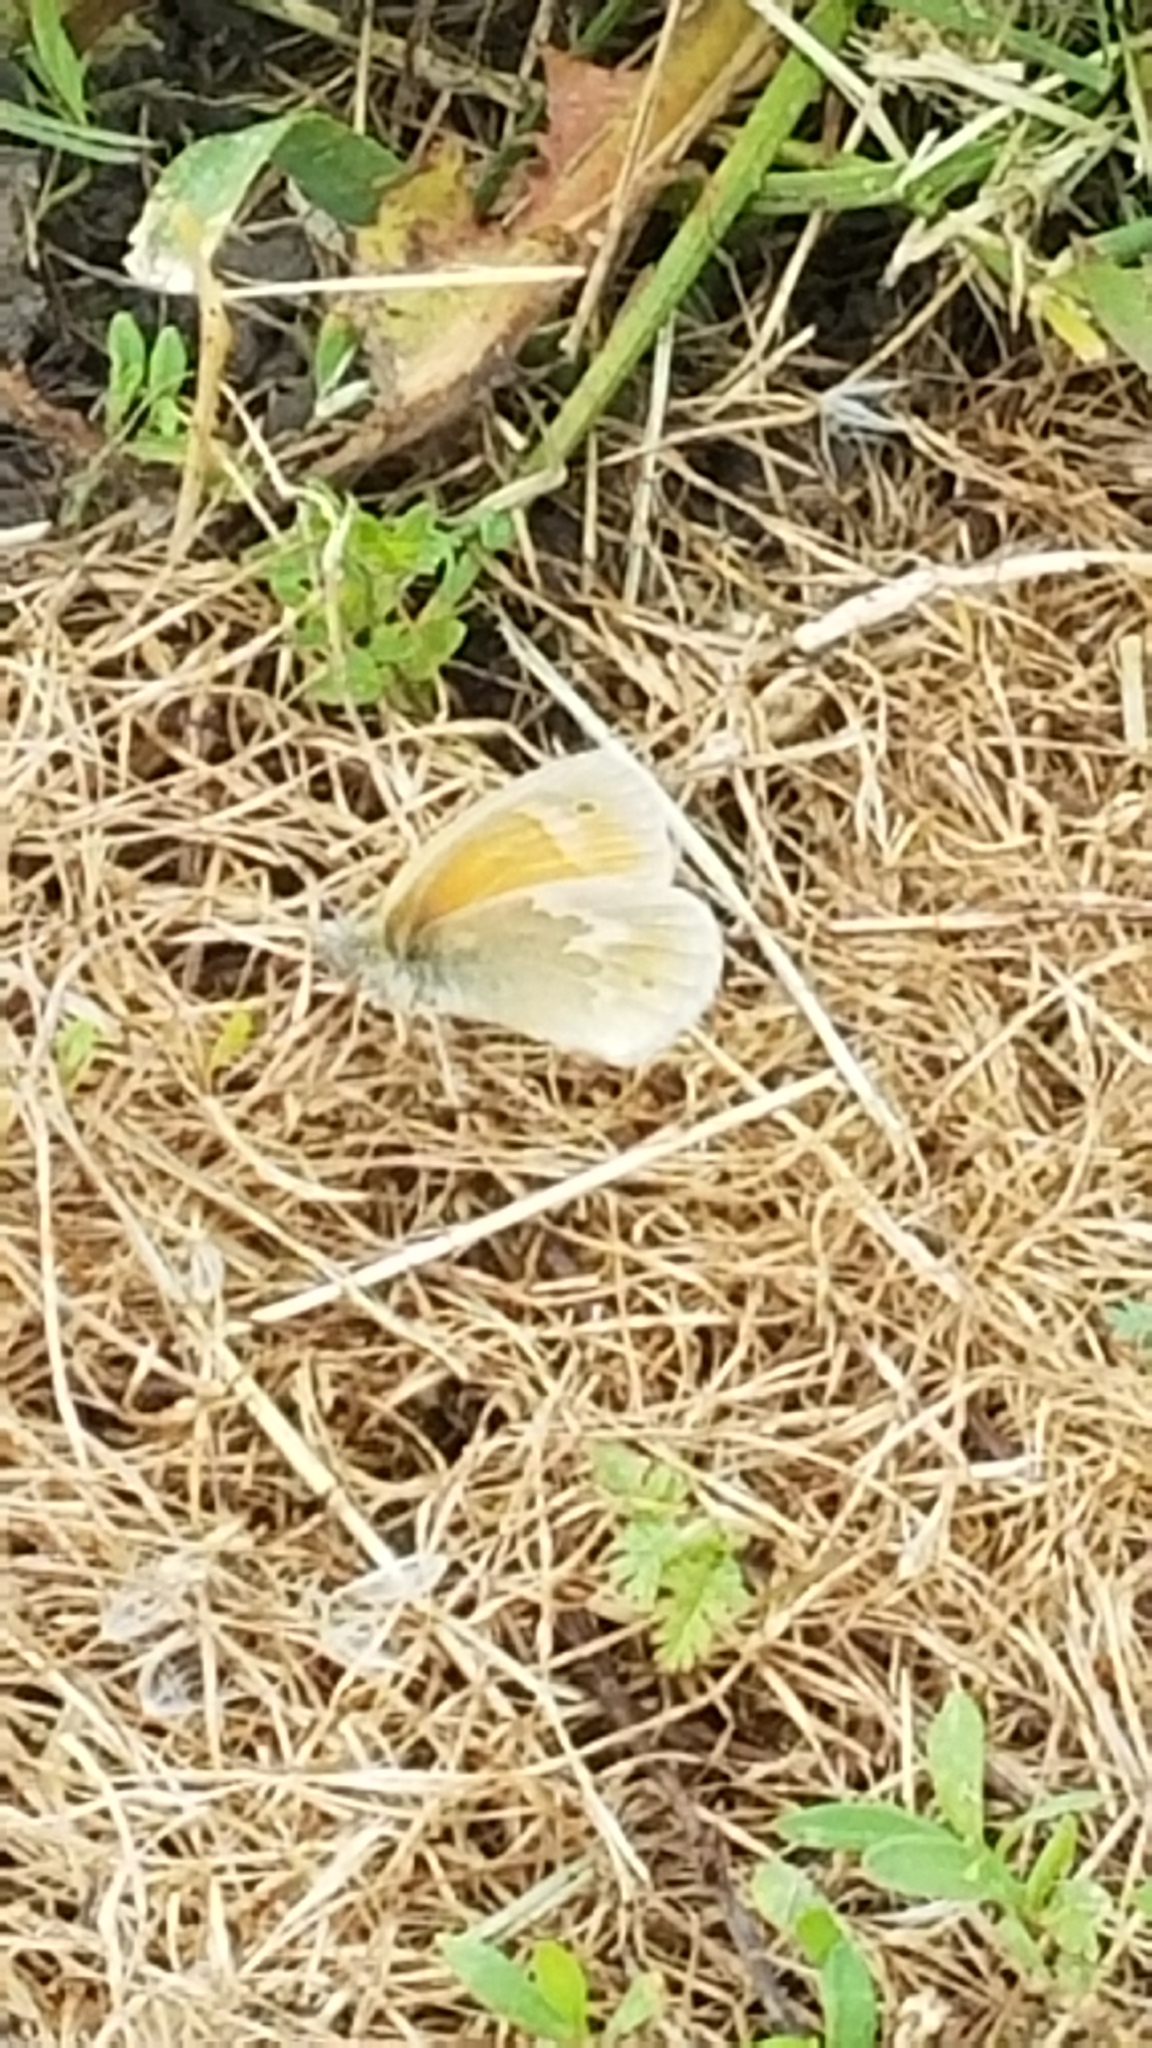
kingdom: Animalia
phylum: Arthropoda
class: Insecta
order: Lepidoptera
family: Nymphalidae
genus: Coenonympha
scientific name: Coenonympha california
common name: Common ringlet
